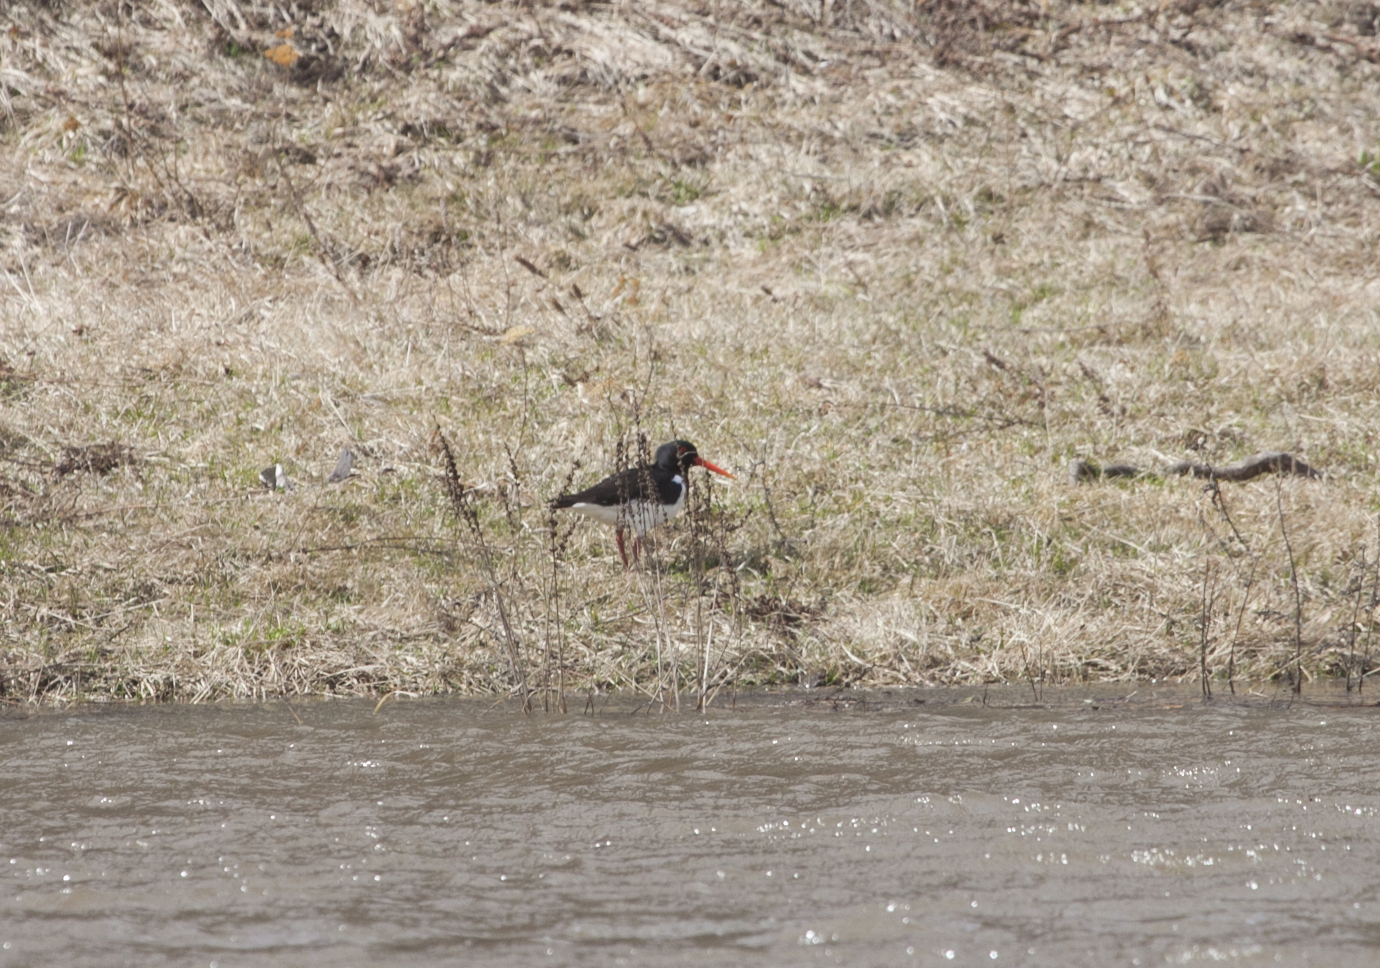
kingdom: Animalia
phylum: Chordata
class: Aves
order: Charadriiformes
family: Haematopodidae
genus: Haematopus
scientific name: Haematopus ostralegus
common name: Eurasian oystercatcher
